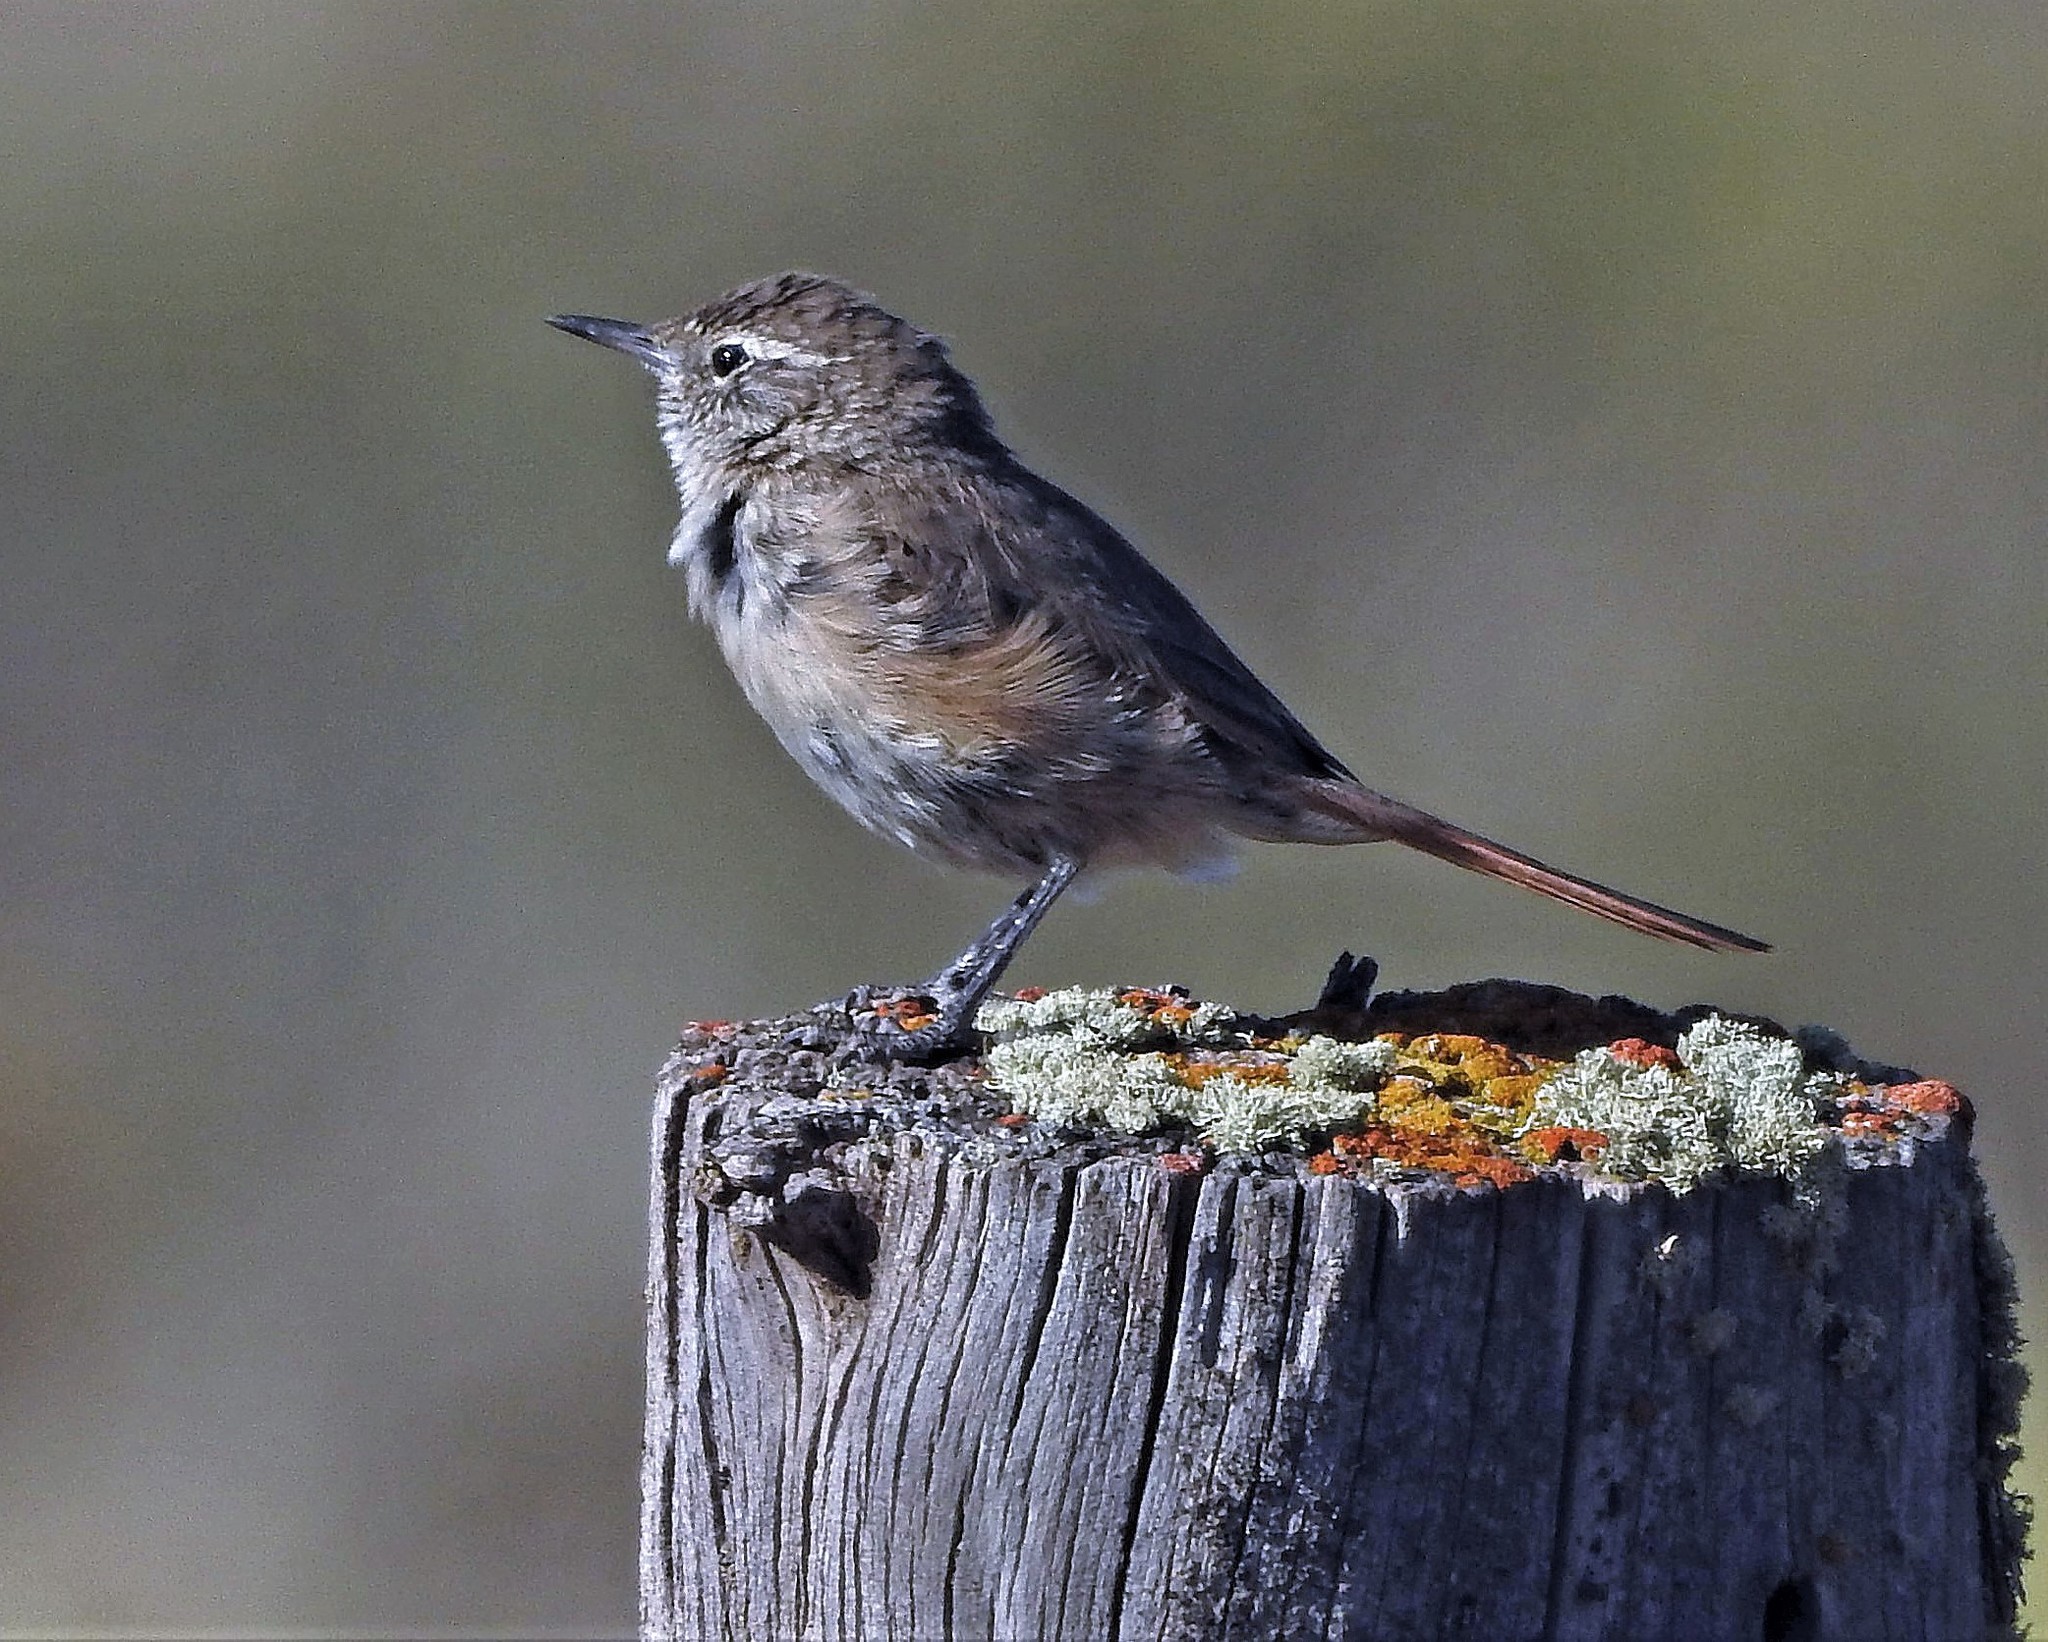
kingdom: Animalia
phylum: Chordata
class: Aves
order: Passeriformes
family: Furnariidae
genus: Asthenes
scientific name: Asthenes modesta
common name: Cordilleran canastero
